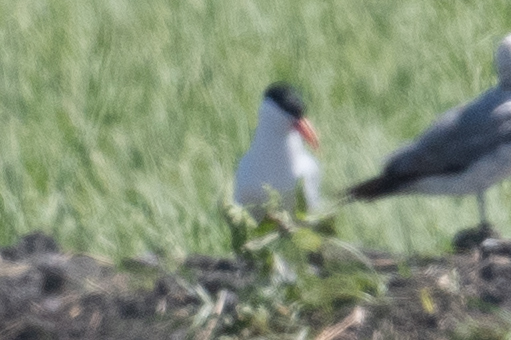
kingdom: Animalia
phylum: Chordata
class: Aves
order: Charadriiformes
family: Laridae
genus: Hydroprogne
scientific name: Hydroprogne caspia
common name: Caspian tern
